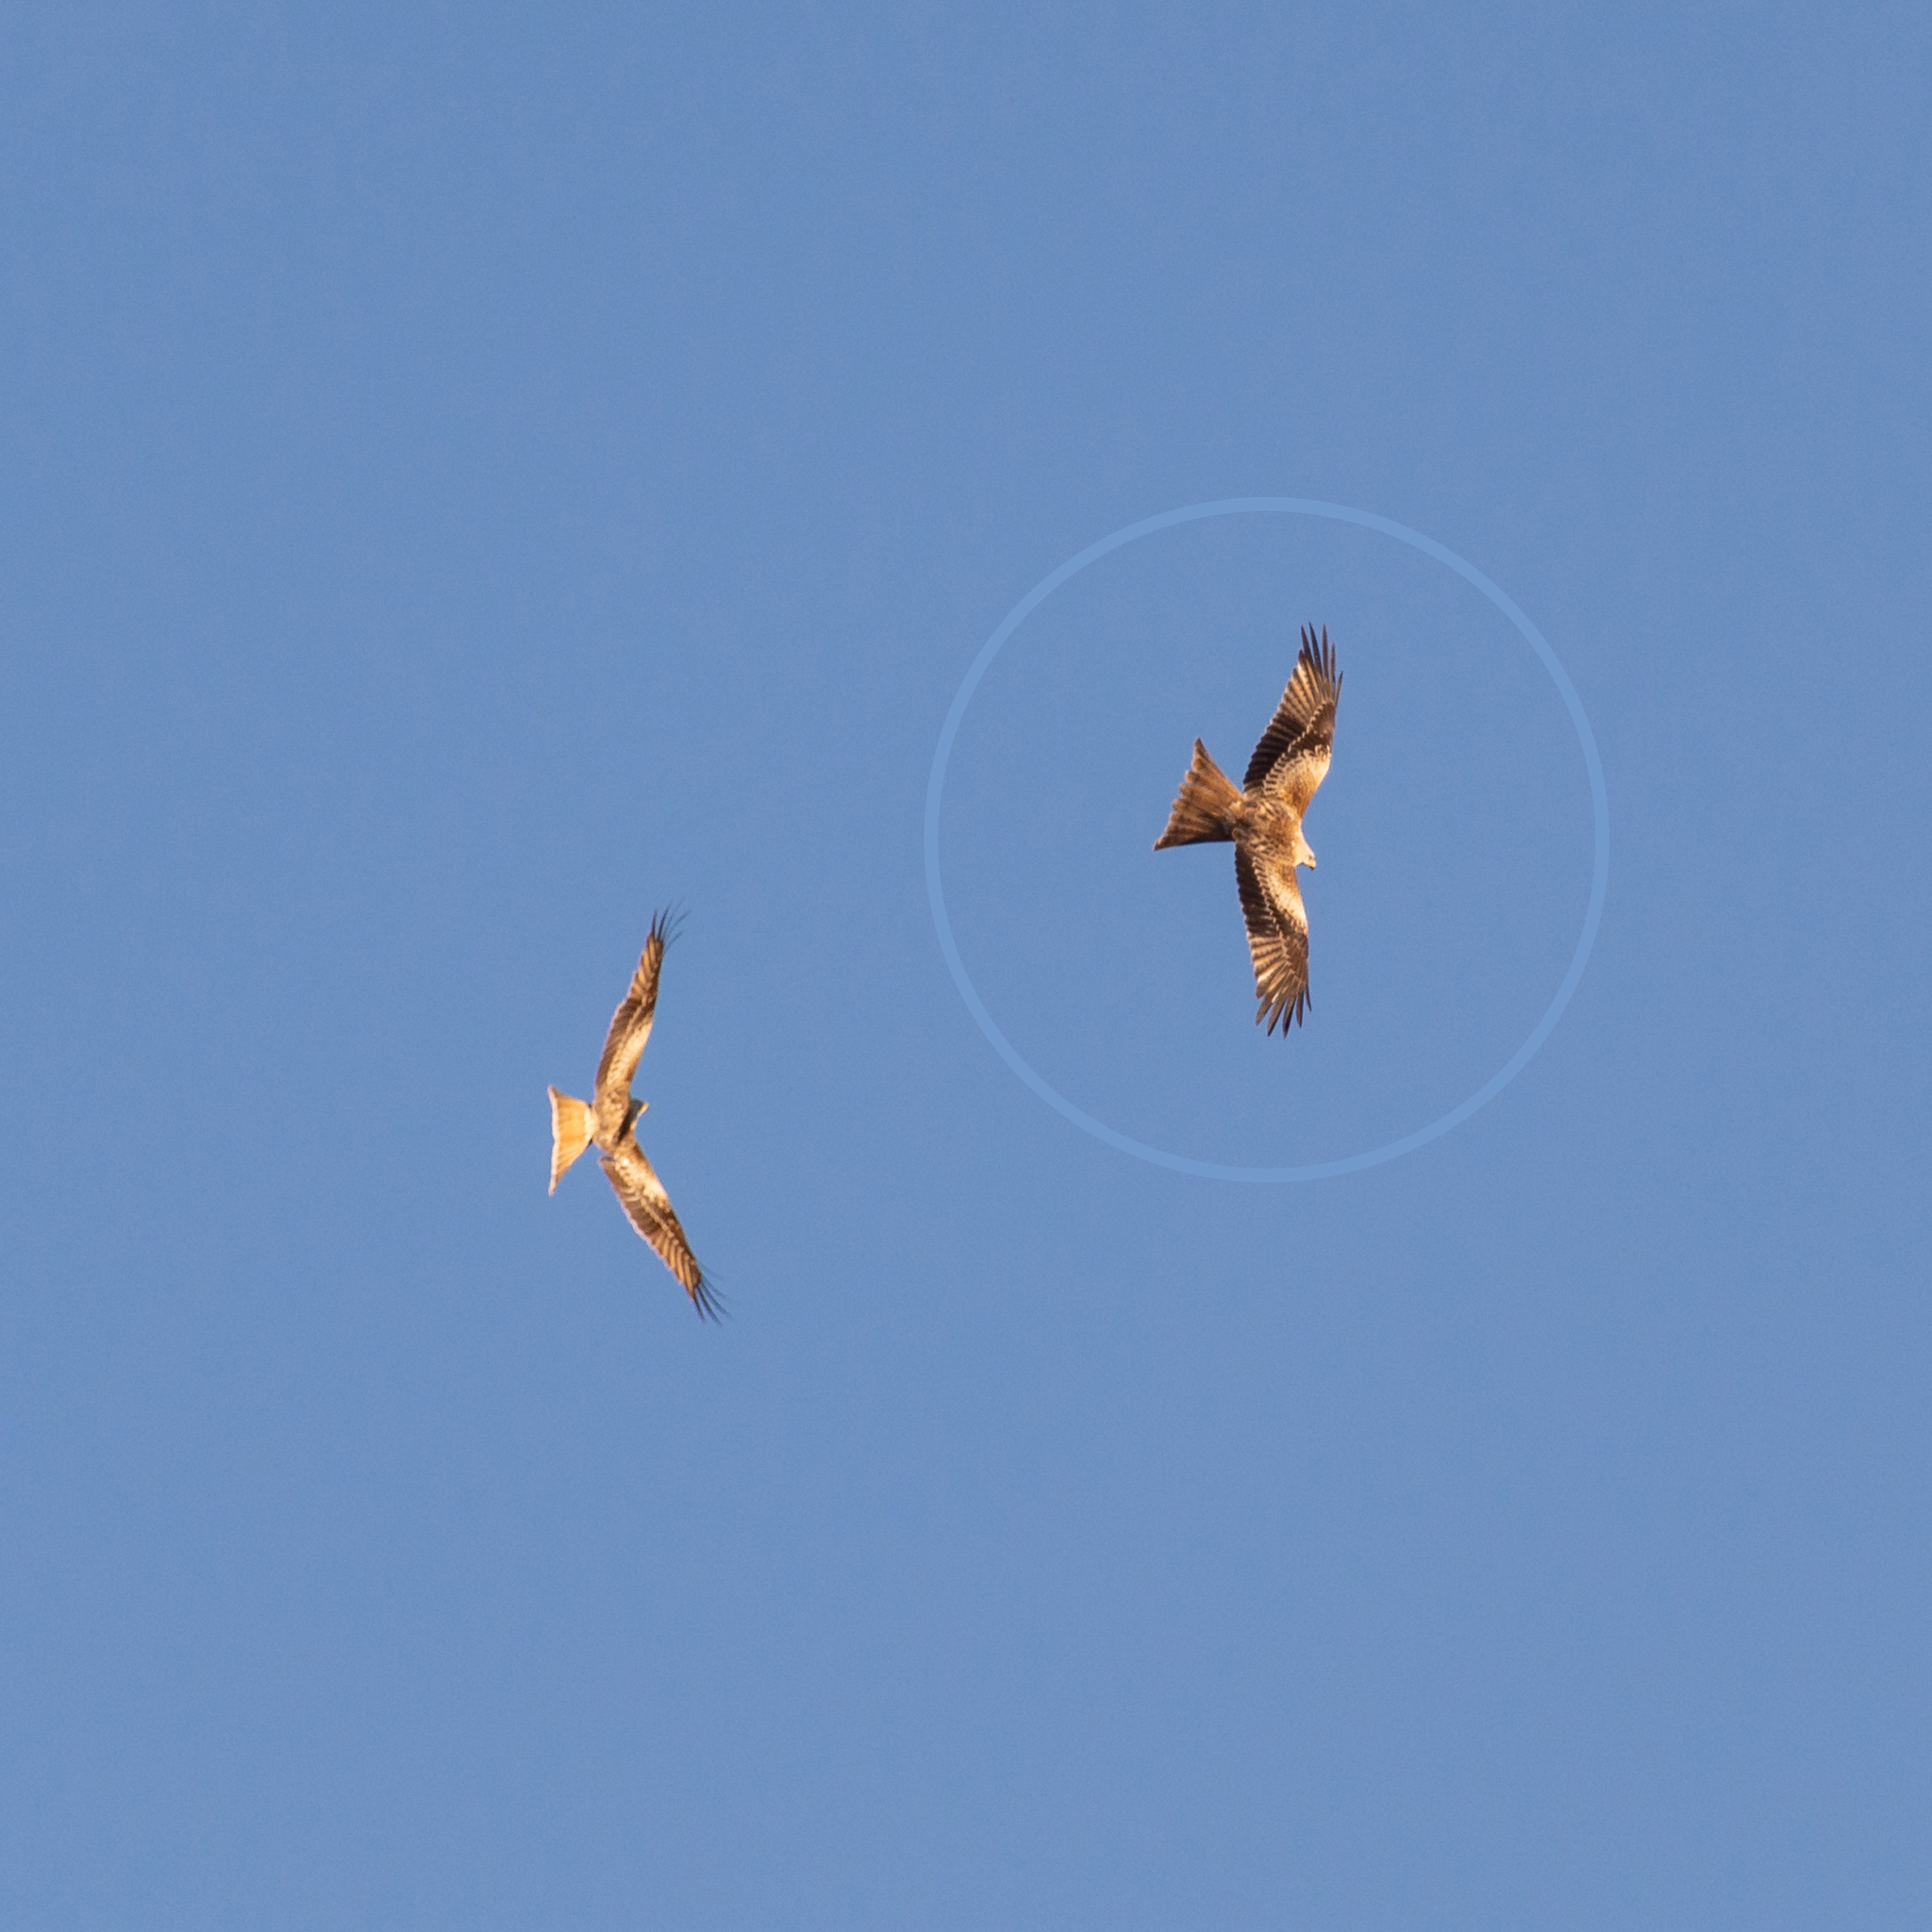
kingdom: Animalia
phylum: Chordata
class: Aves
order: Accipitriformes
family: Accipitridae
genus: Milvus
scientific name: Milvus milvus
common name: Red kite
